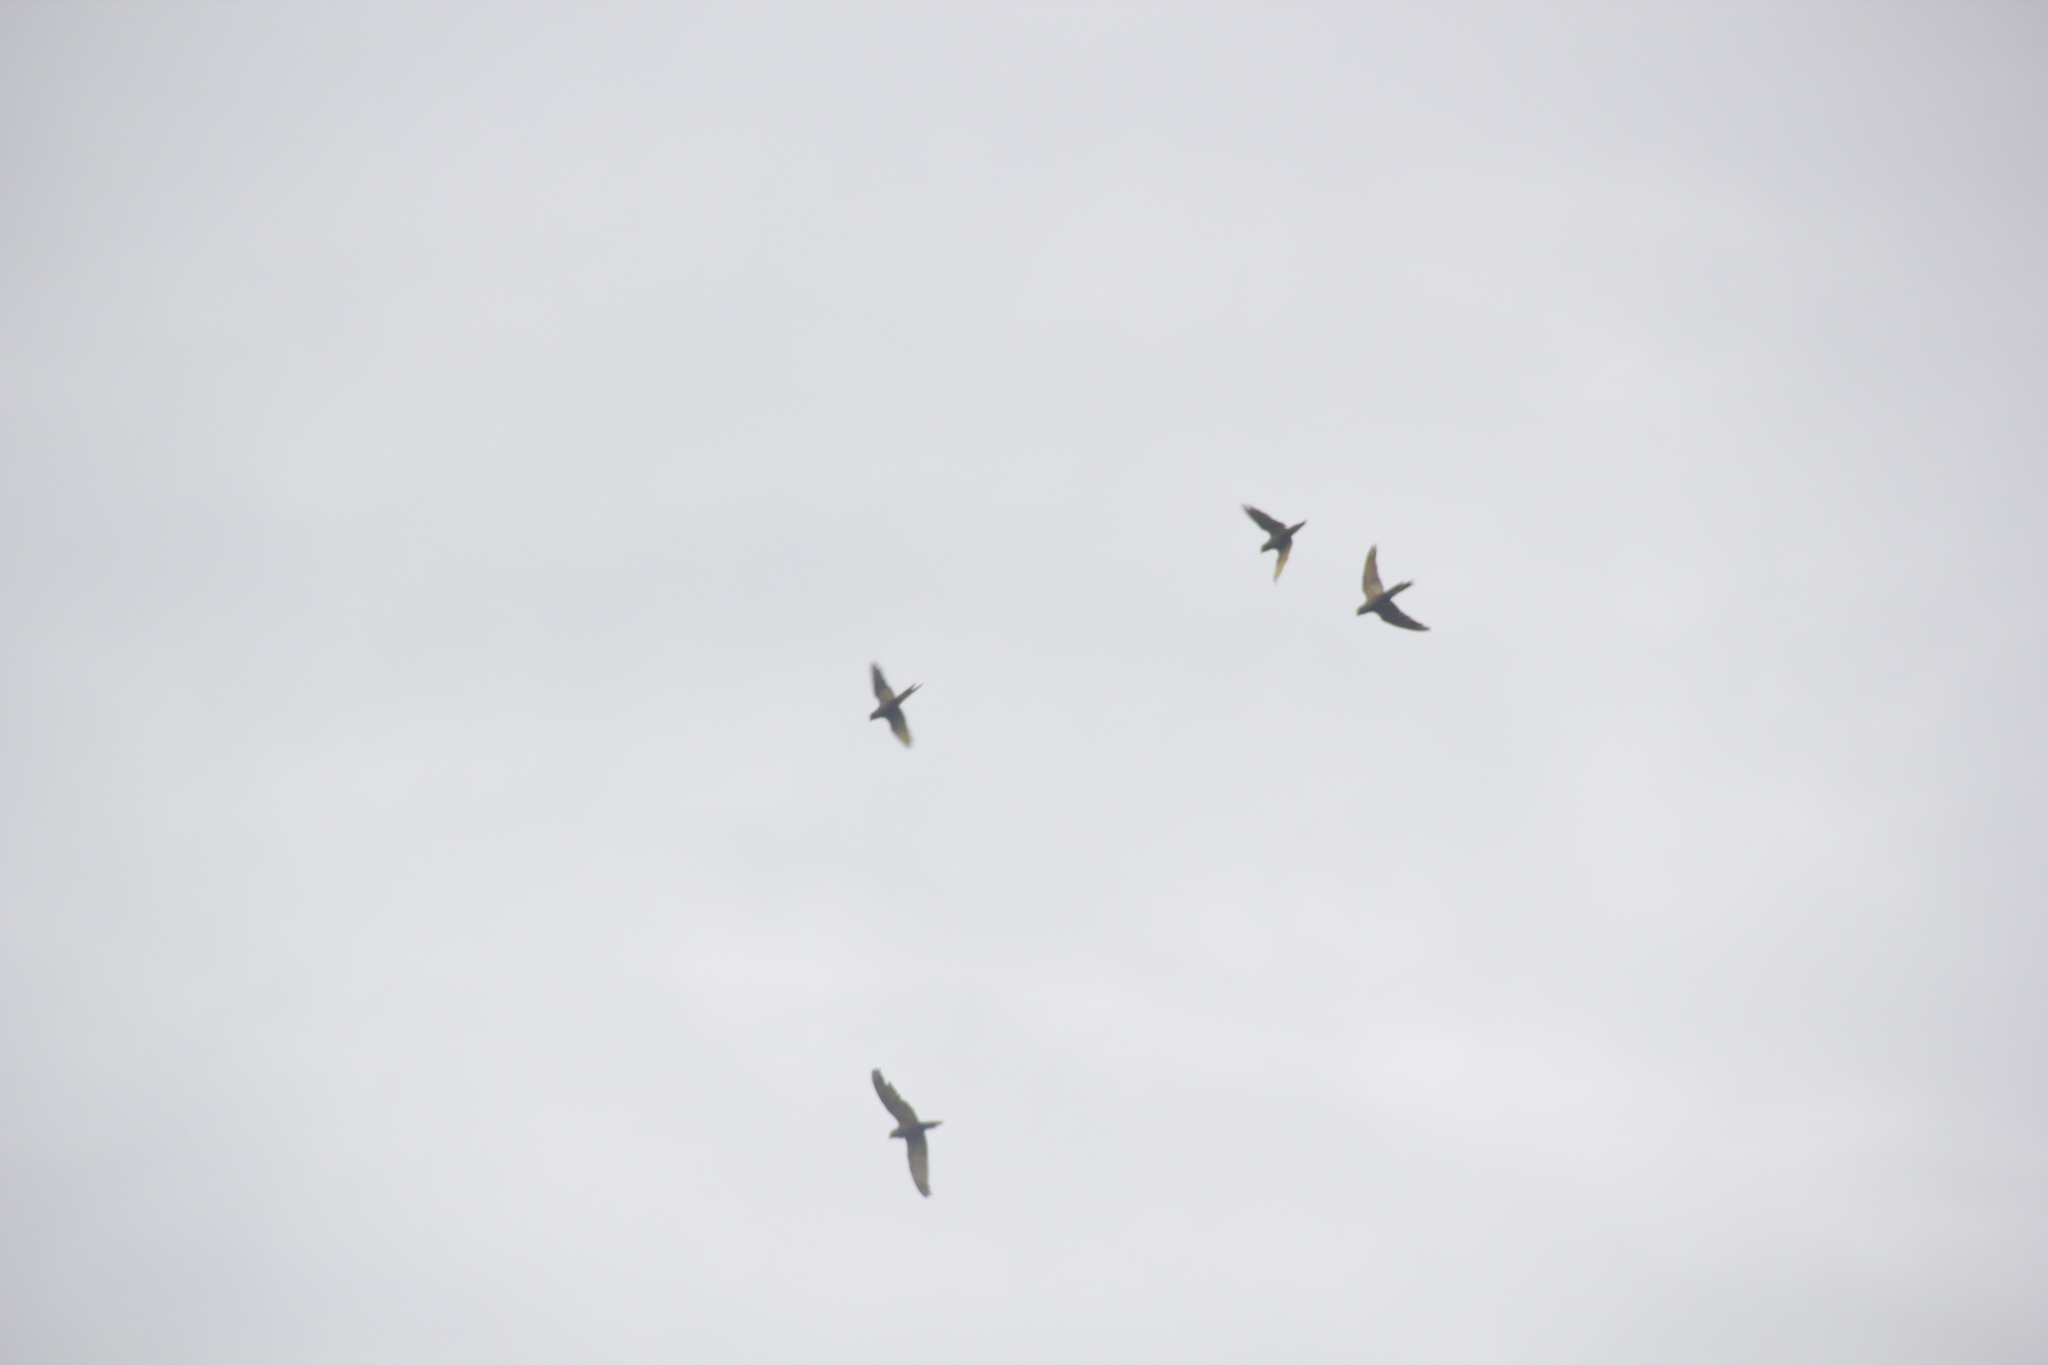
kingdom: Animalia
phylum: Chordata
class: Aves
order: Psittaciformes
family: Psittacidae
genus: Ara
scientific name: Ara ararauna
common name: Blue-and-yellow macaw
